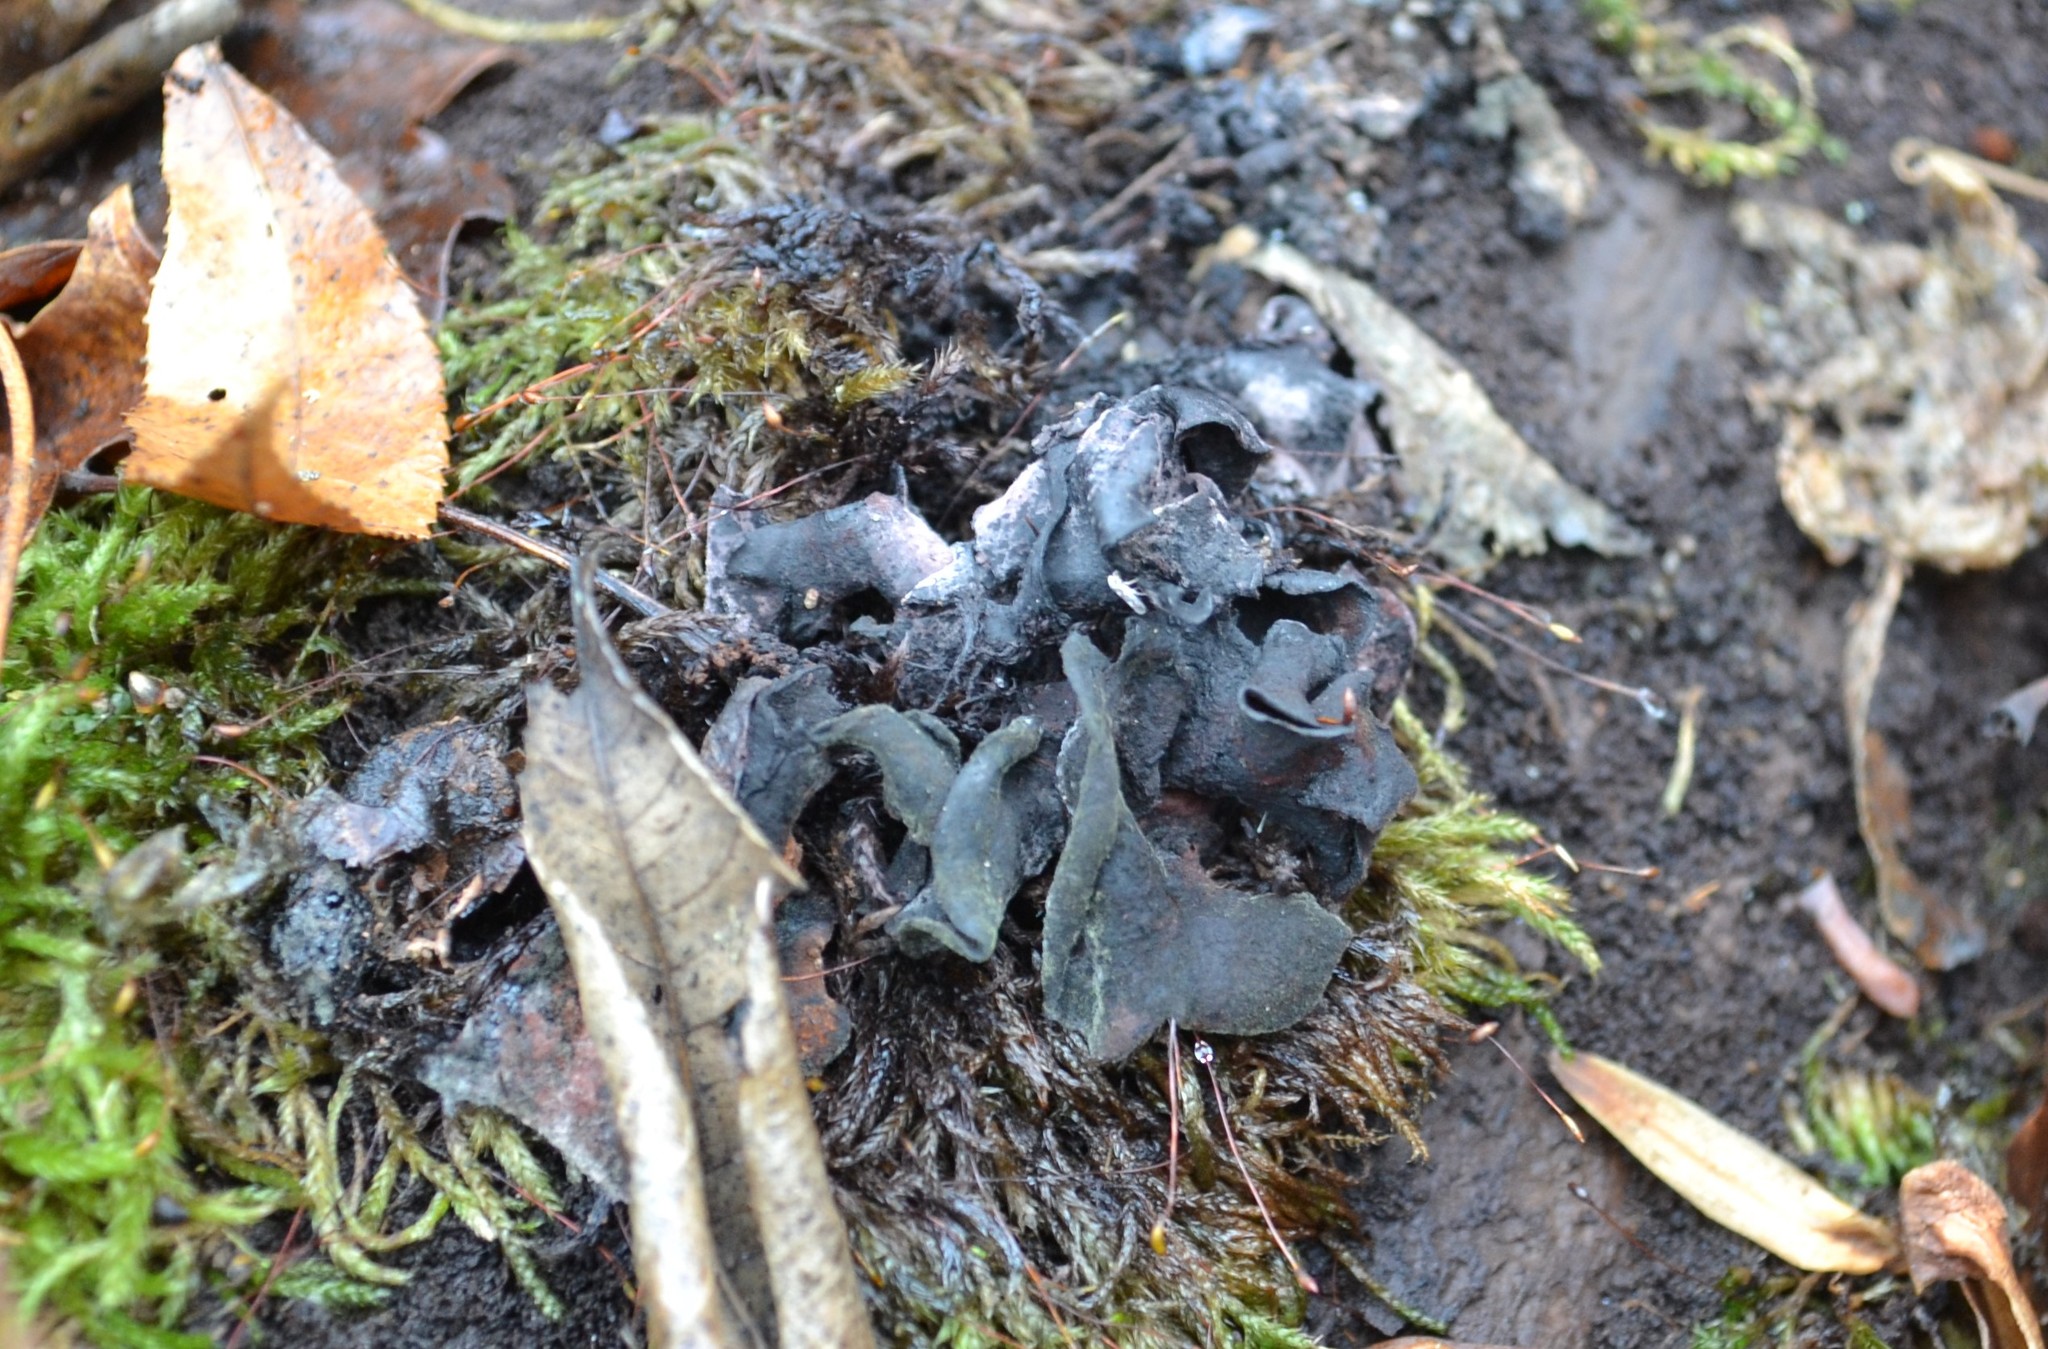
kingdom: Fungi
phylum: Ascomycota
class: Leotiomycetes
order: Helotiales
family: Cordieritidaceae
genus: Diplocarpa
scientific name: Diplocarpa irregularis
